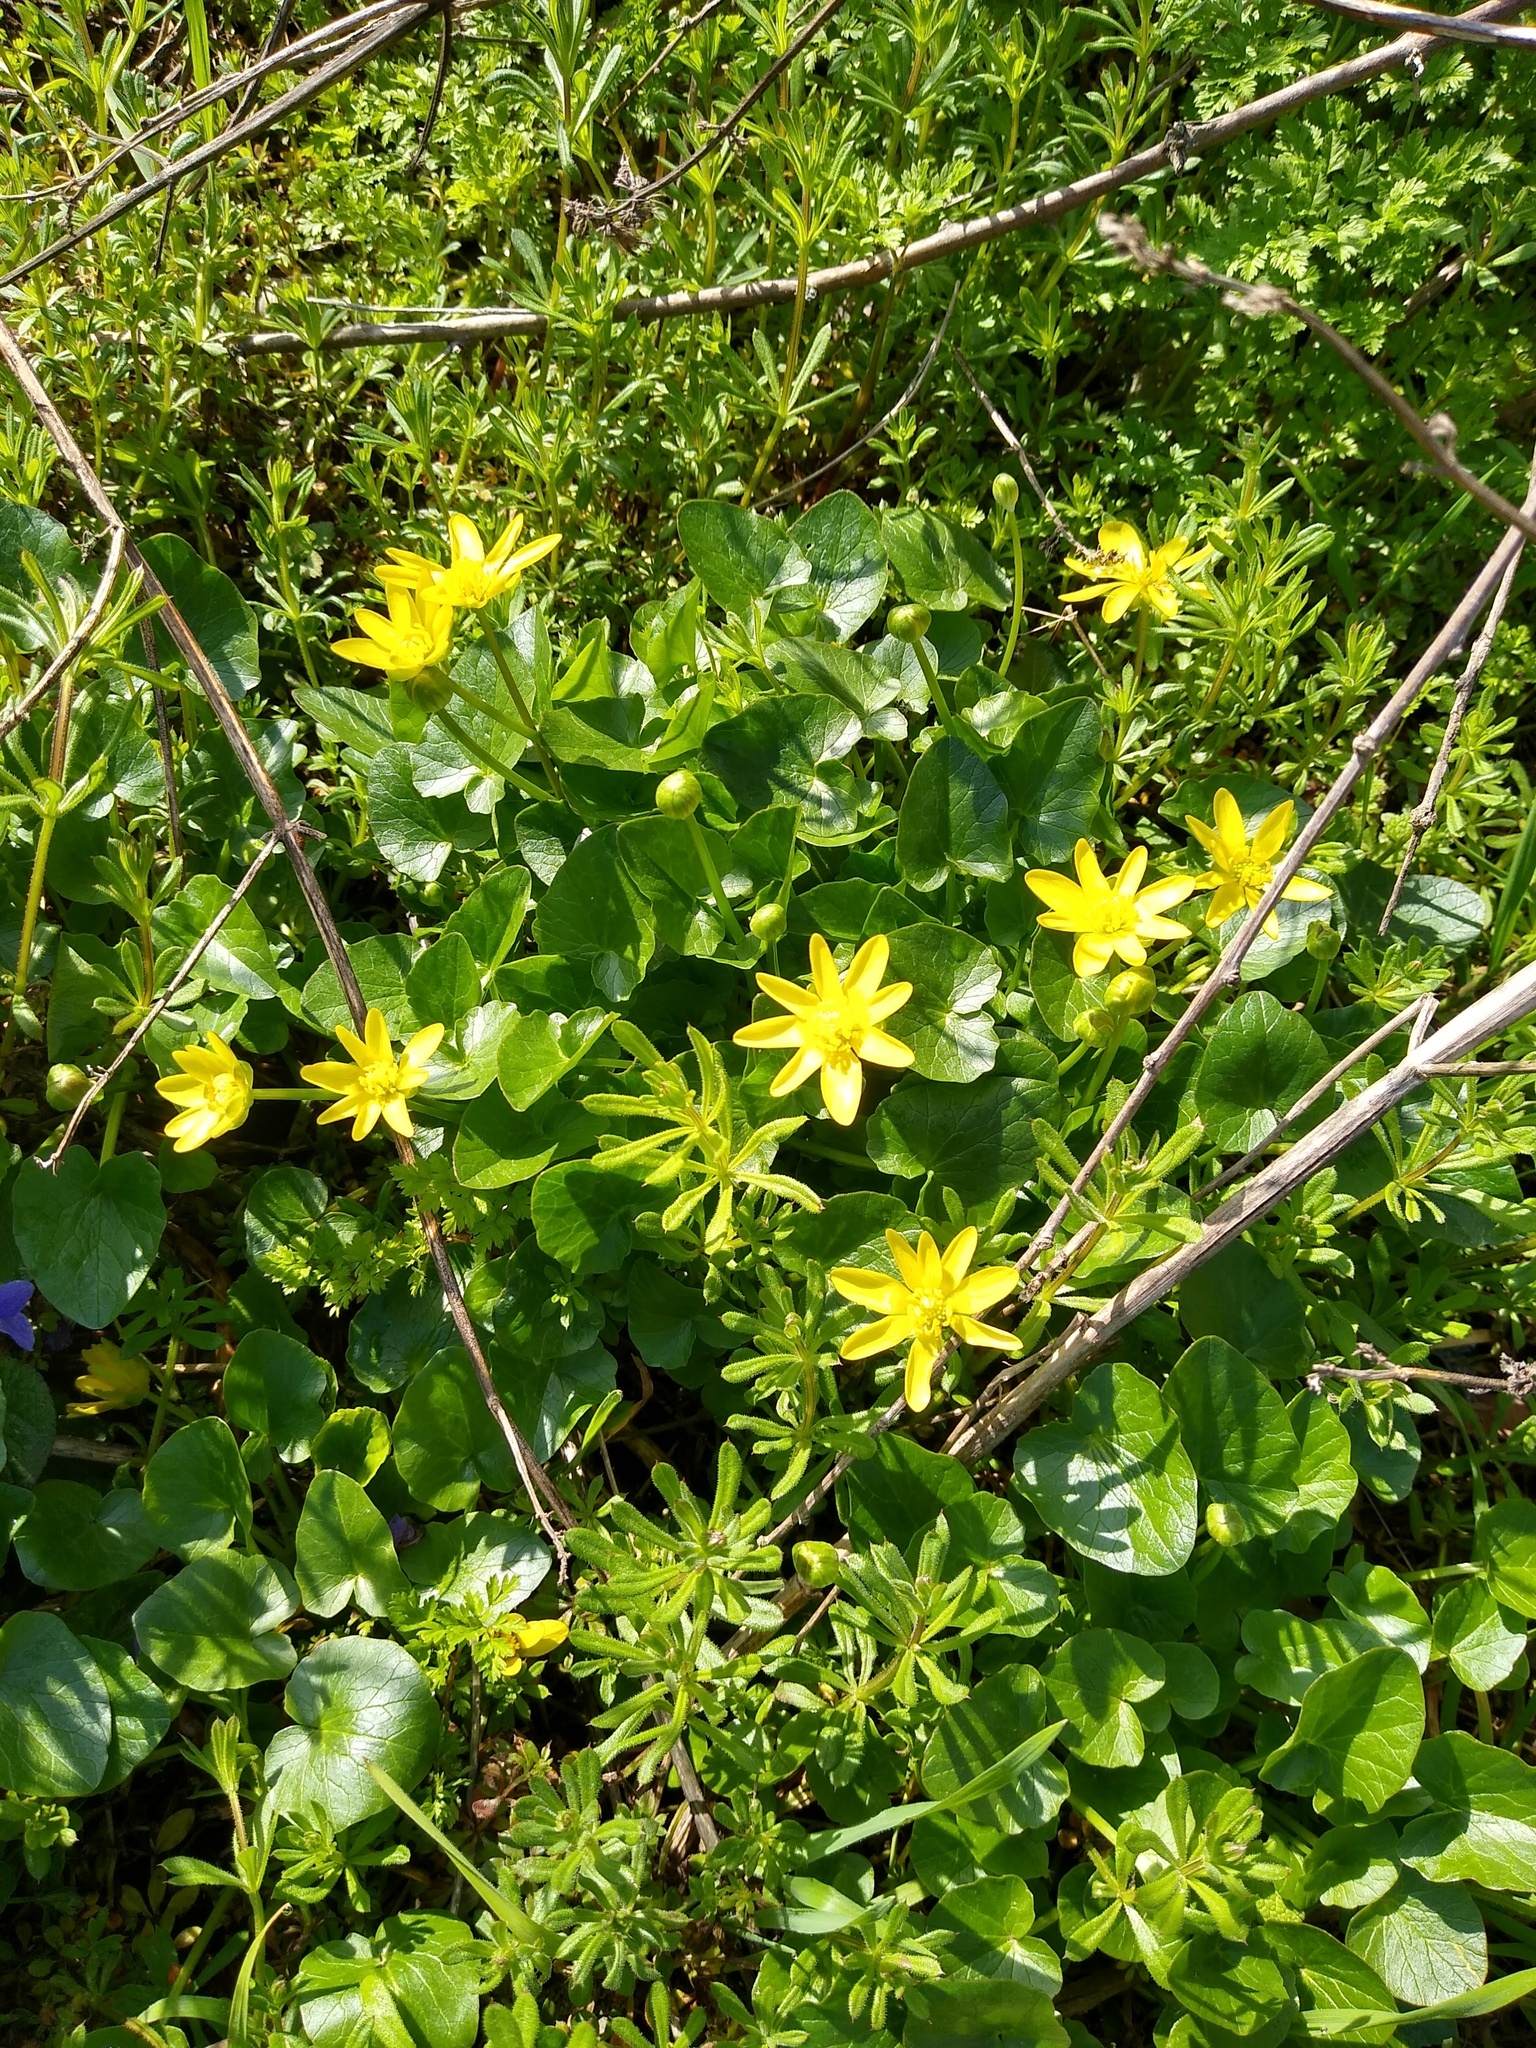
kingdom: Plantae
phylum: Tracheophyta
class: Magnoliopsida
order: Ranunculales
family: Ranunculaceae
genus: Ficaria
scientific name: Ficaria verna
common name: Lesser celandine
